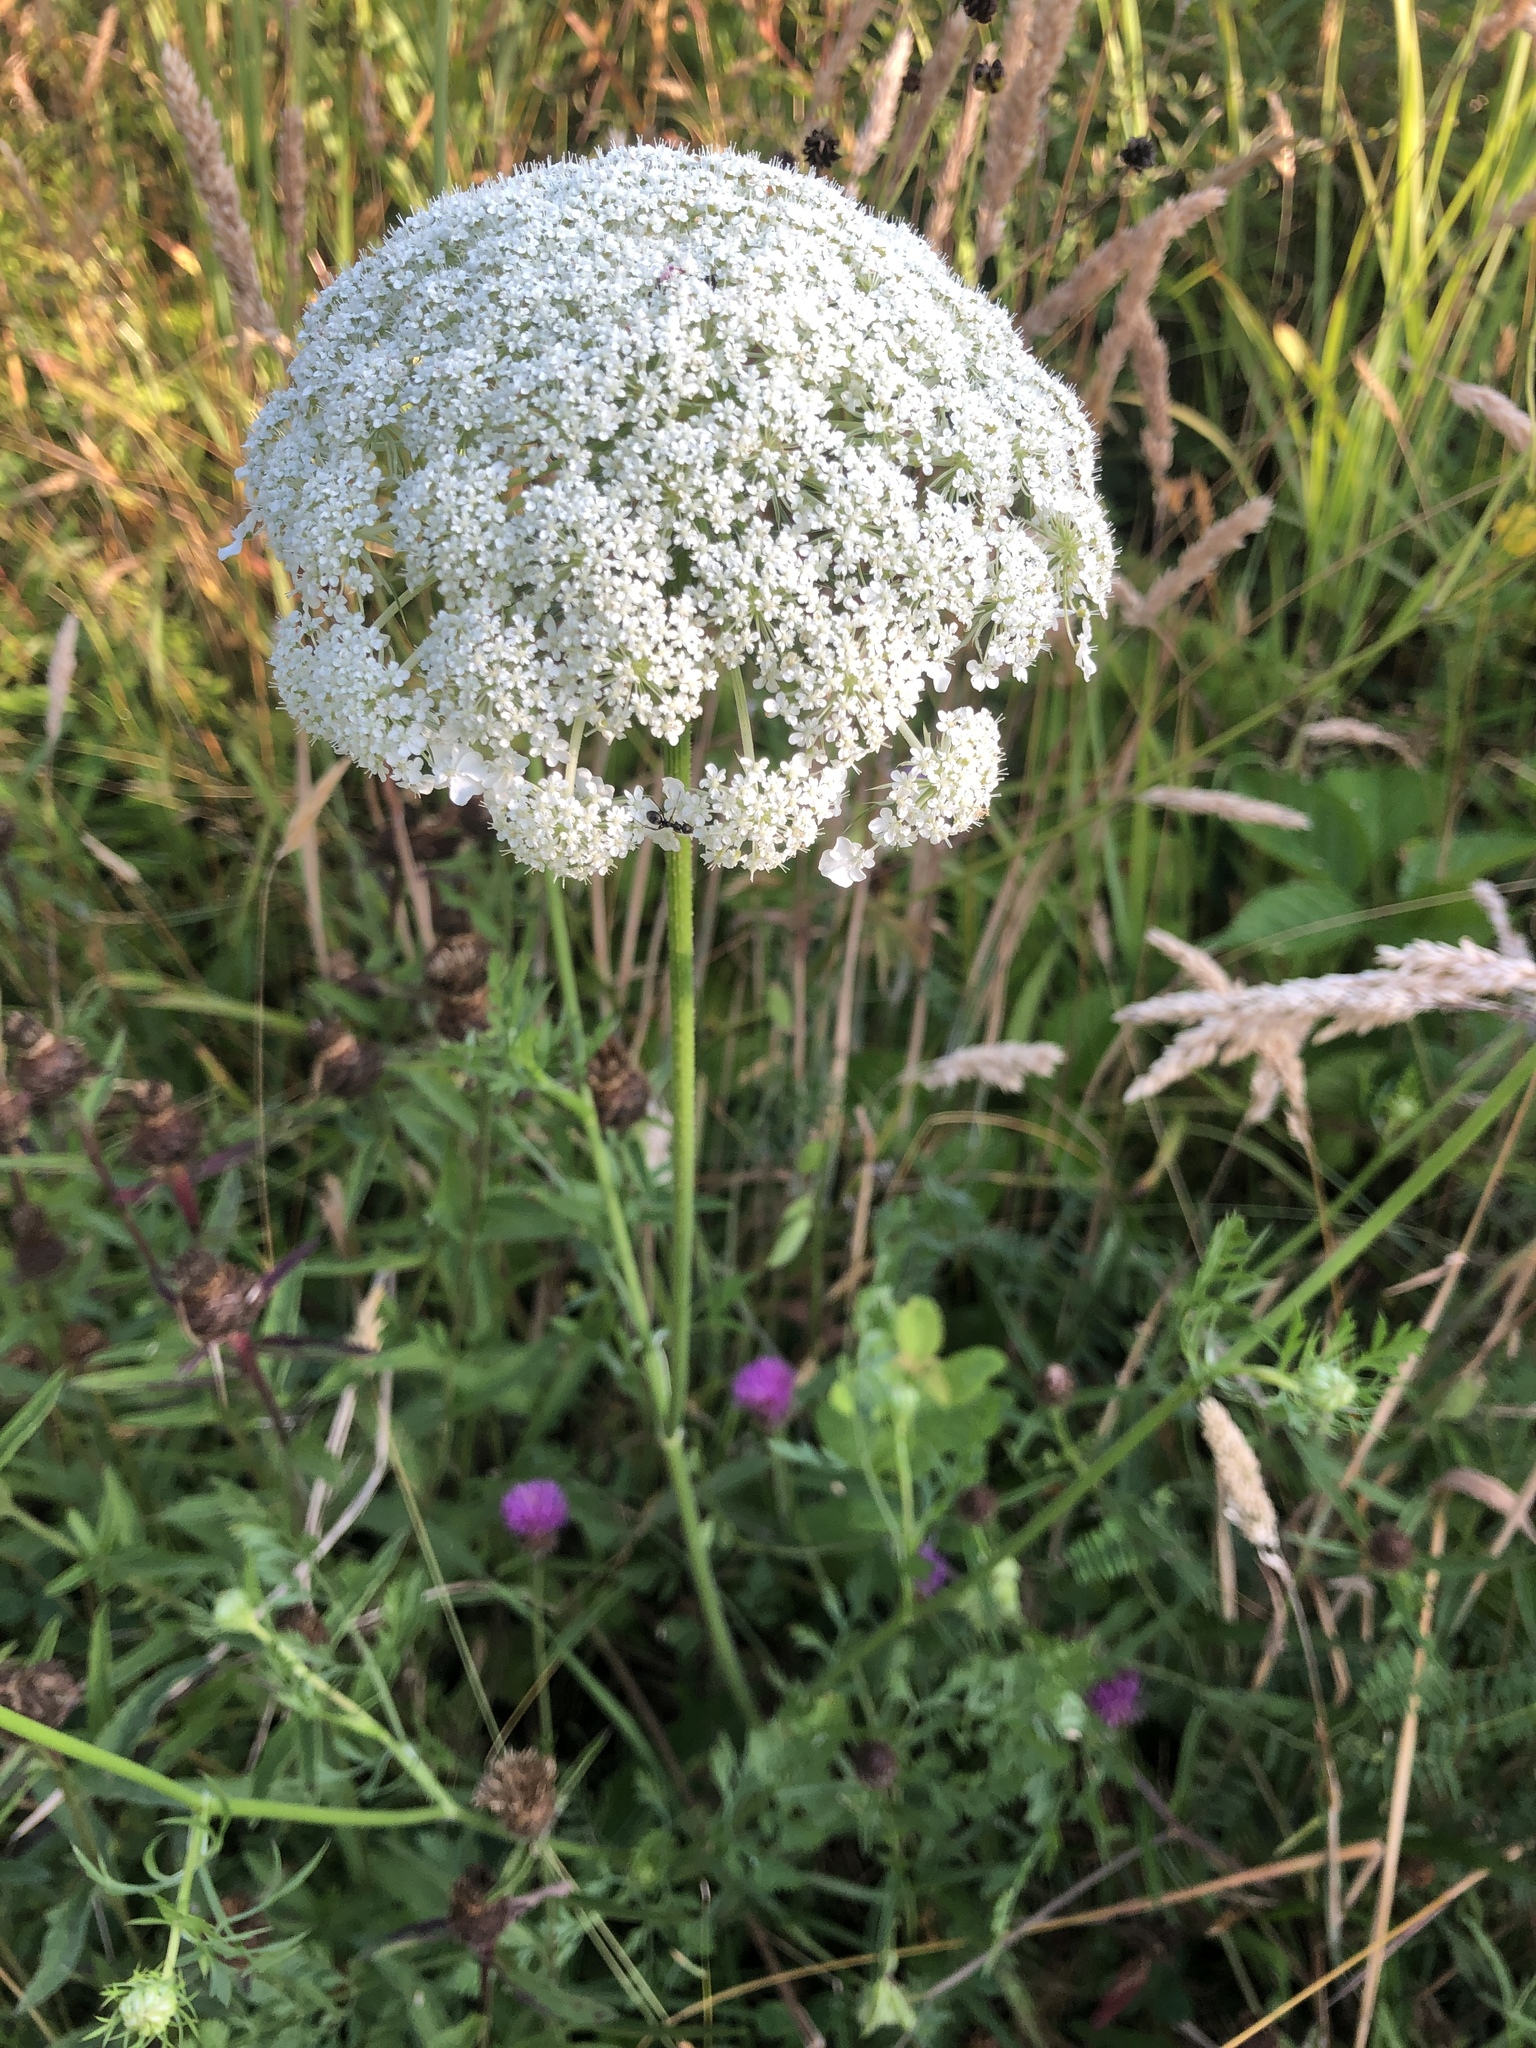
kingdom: Plantae
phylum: Tracheophyta
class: Magnoliopsida
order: Apiales
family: Apiaceae
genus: Daucus
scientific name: Daucus carota
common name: Wild carrot
